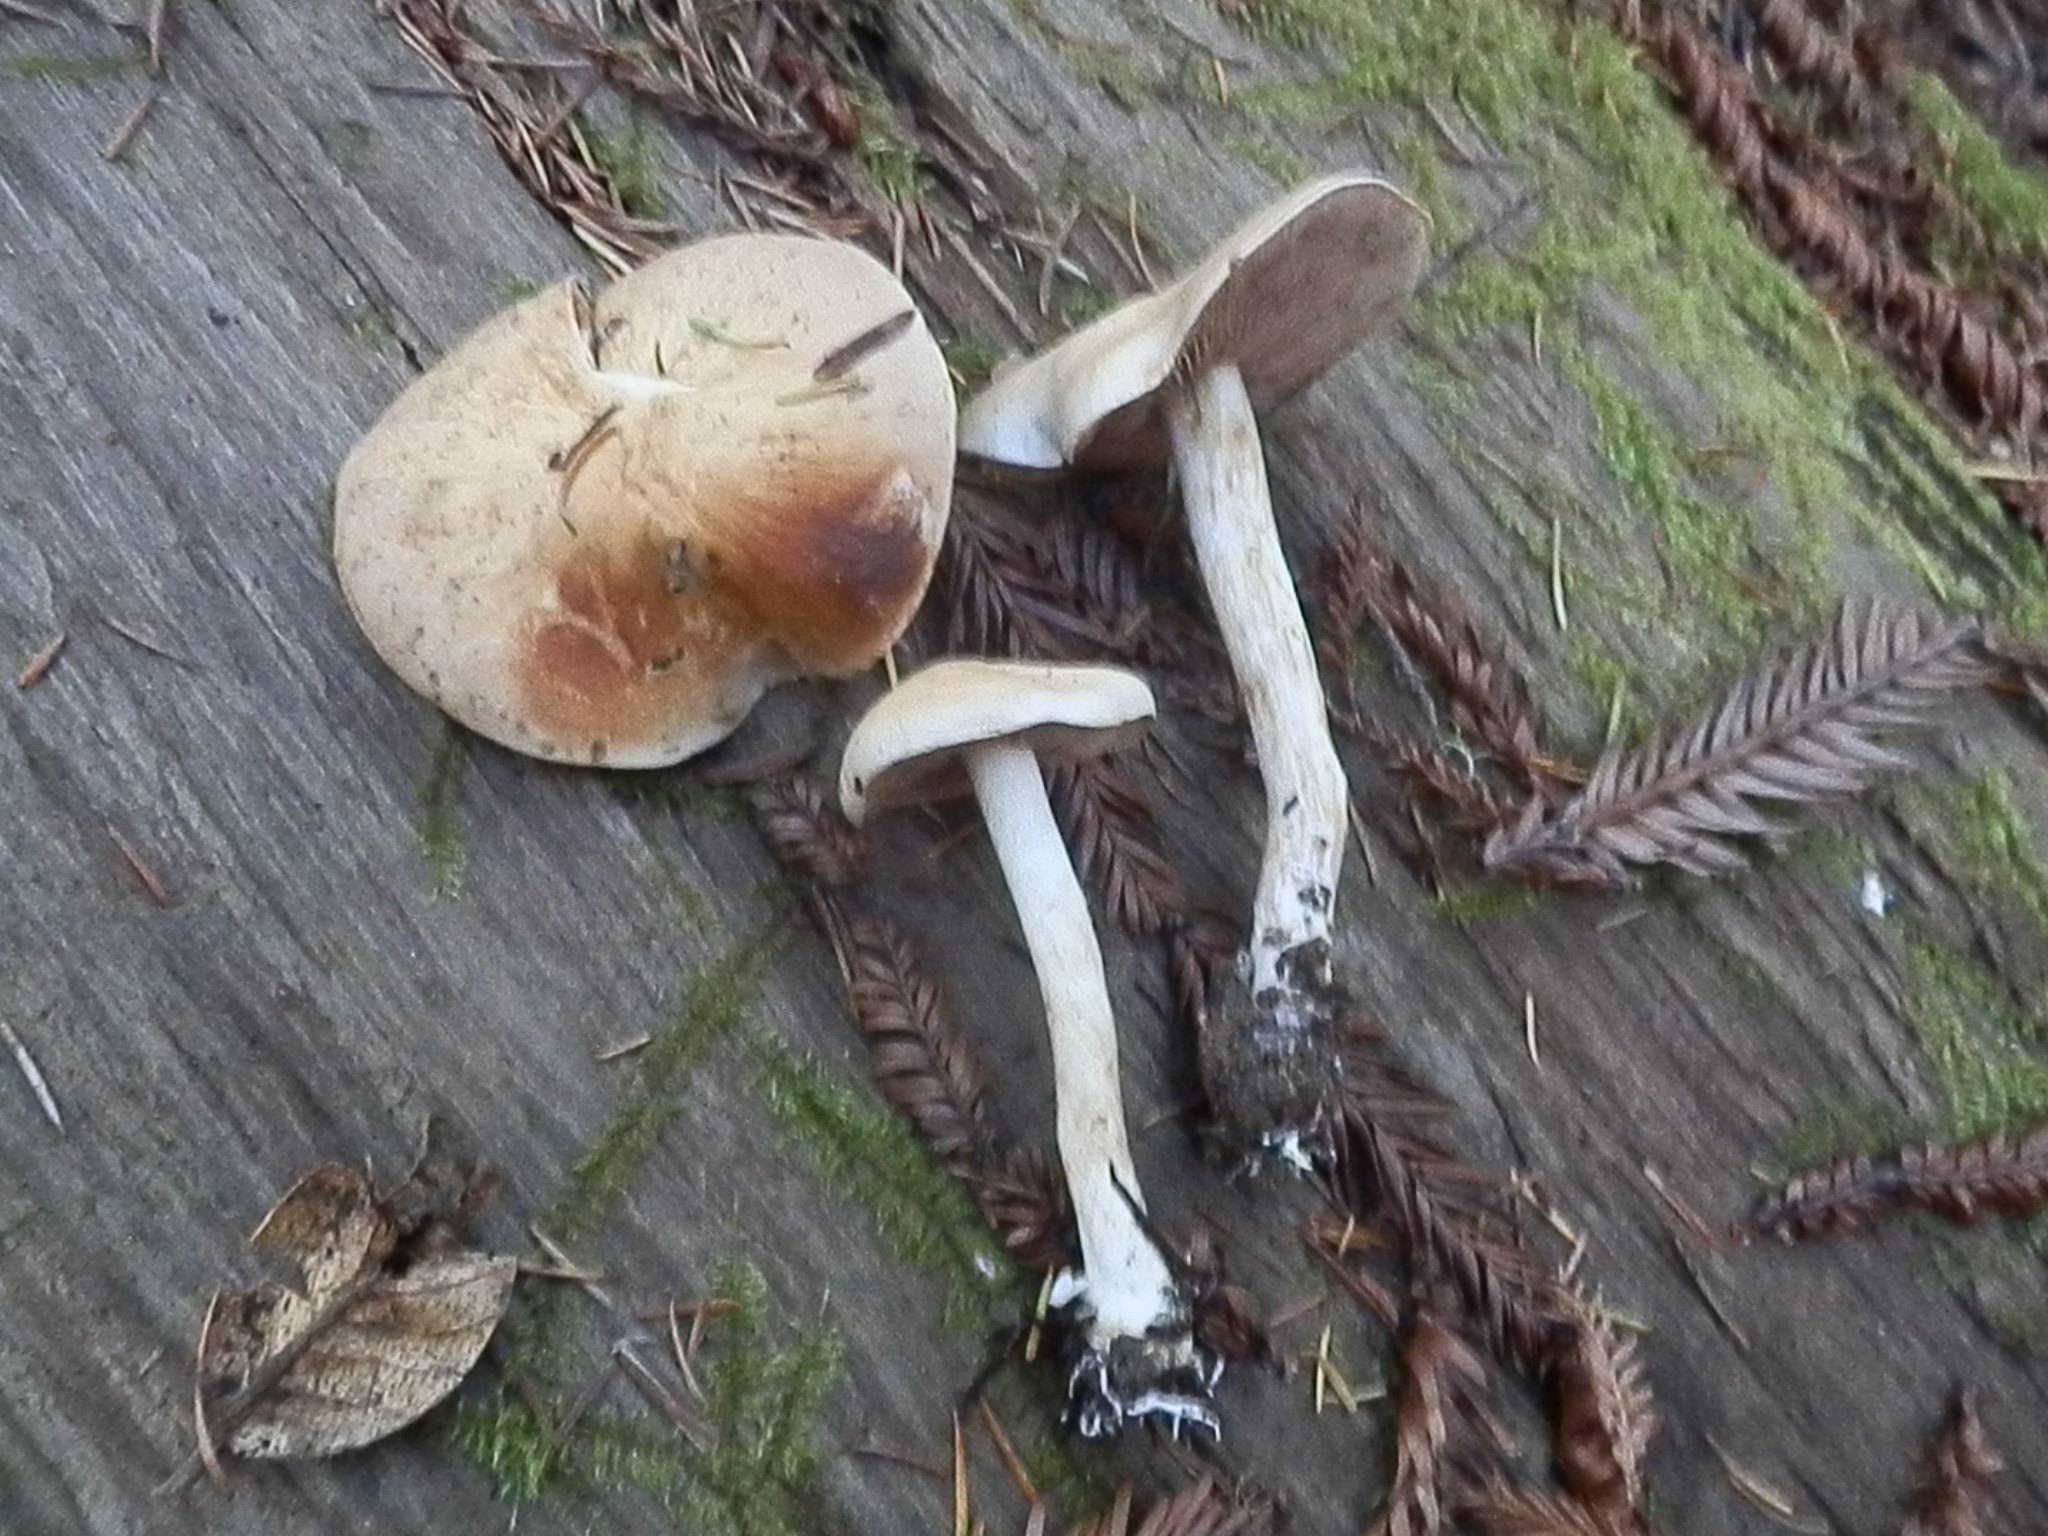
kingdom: Fungi
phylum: Basidiomycota
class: Agaricomycetes
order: Agaricales
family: Hymenogastraceae
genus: Hebeloma
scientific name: Hebeloma leucosarx
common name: Birch poisonpie
